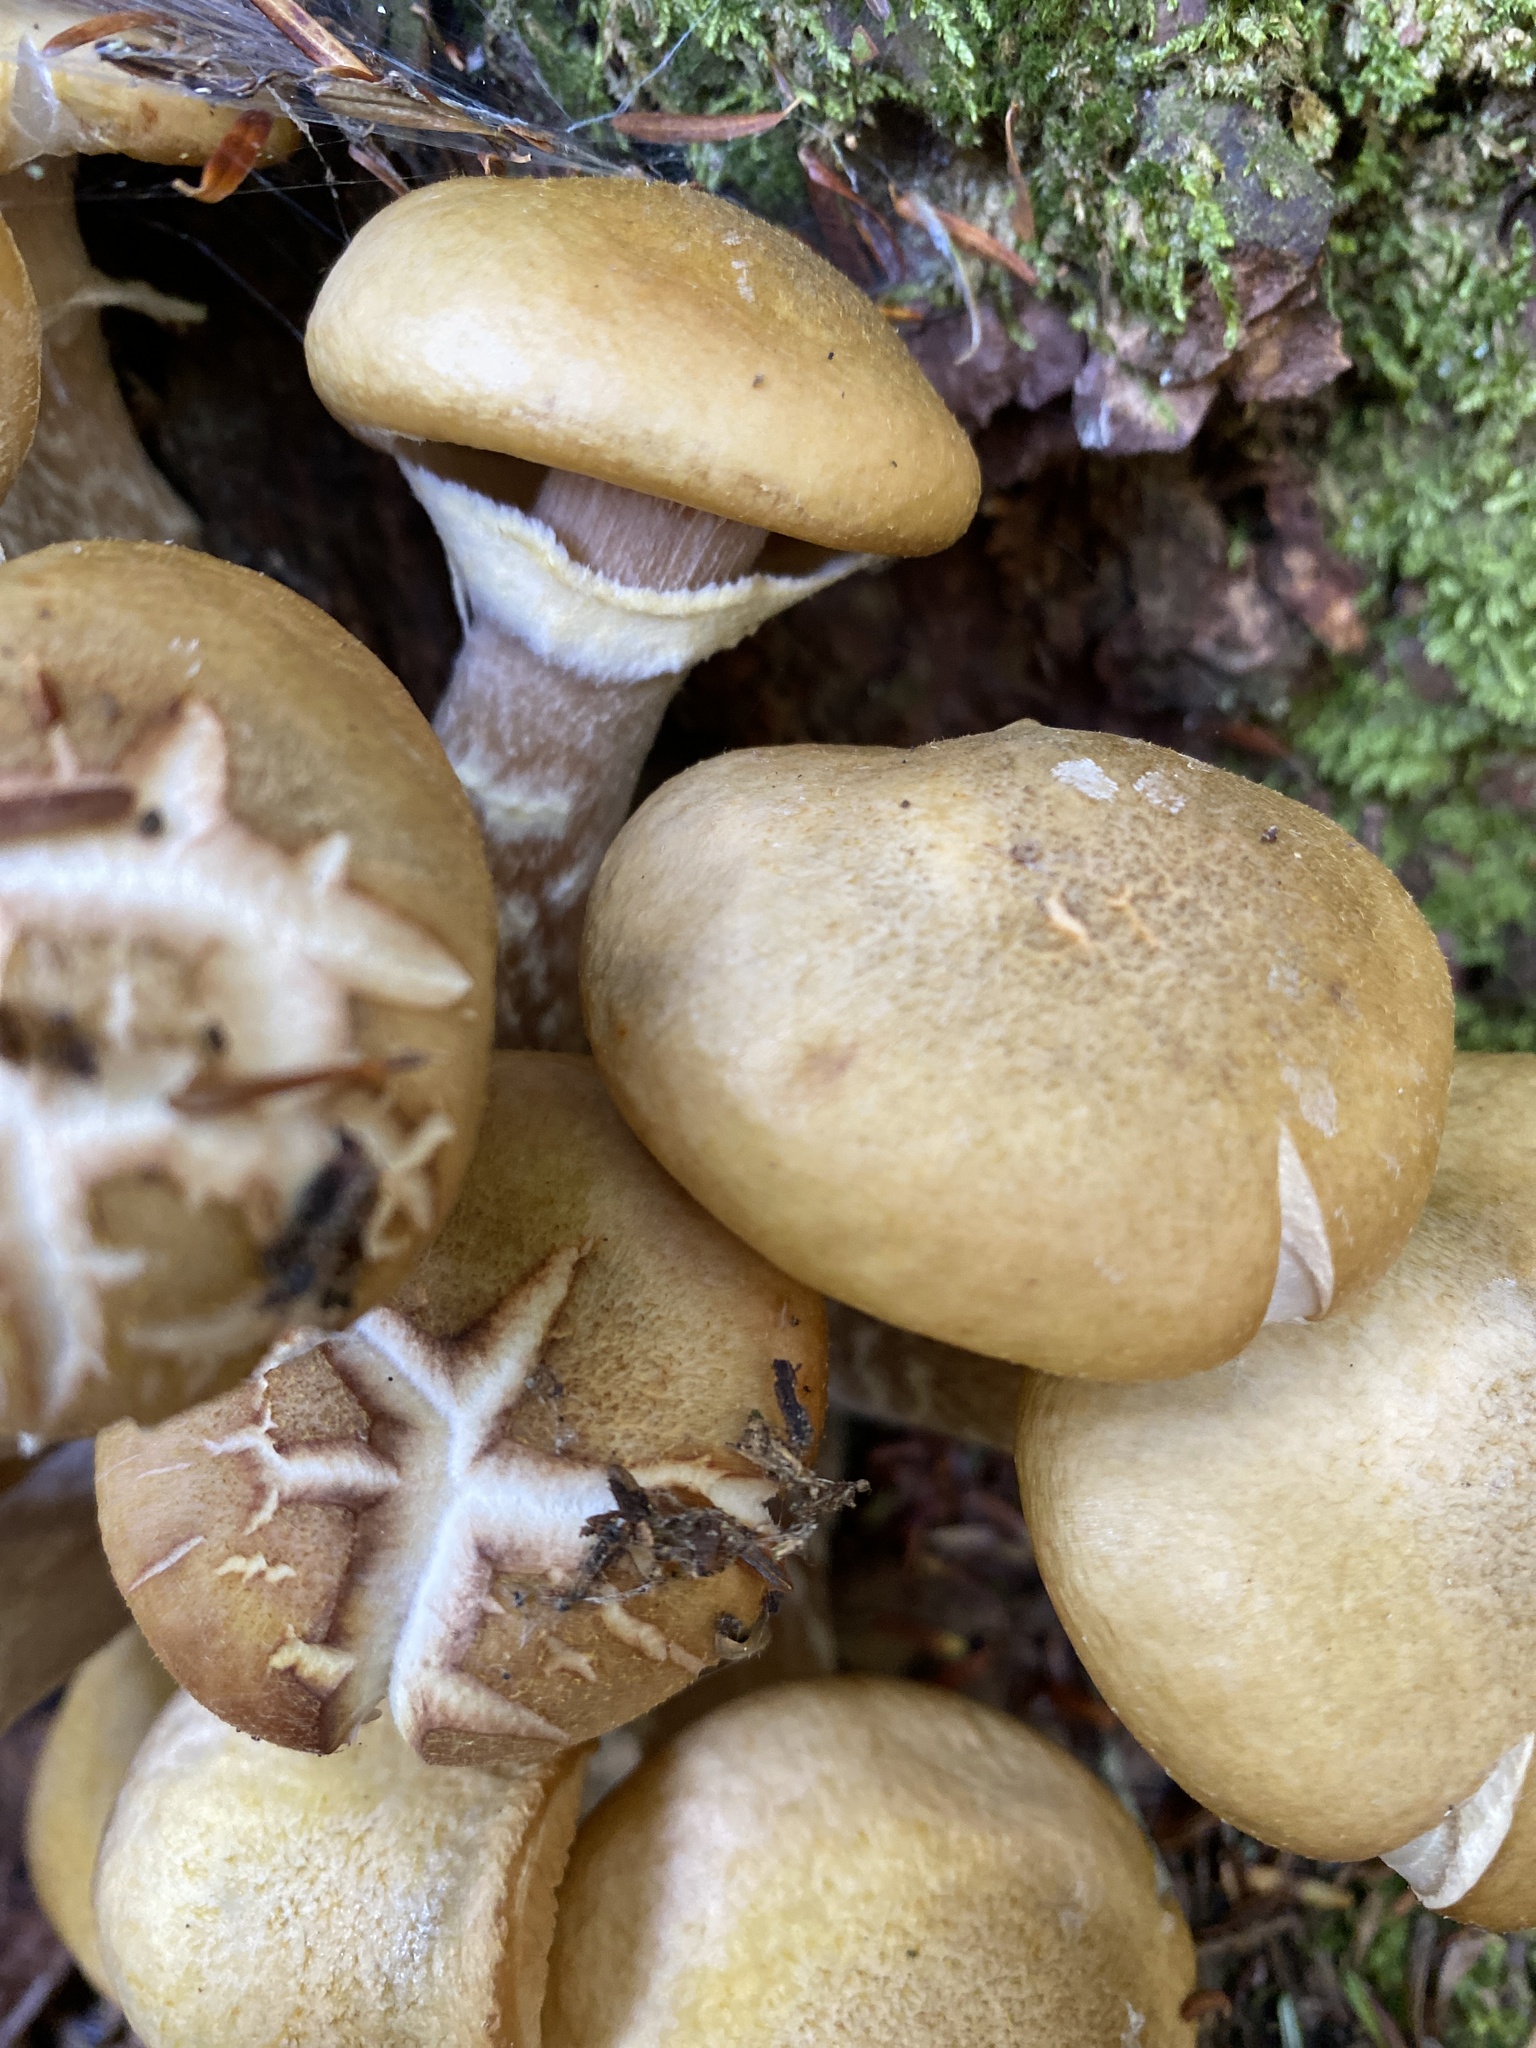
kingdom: Fungi
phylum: Basidiomycota
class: Agaricomycetes
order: Agaricales
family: Physalacriaceae
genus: Armillaria
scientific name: Armillaria mellea
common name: Honey fungus
